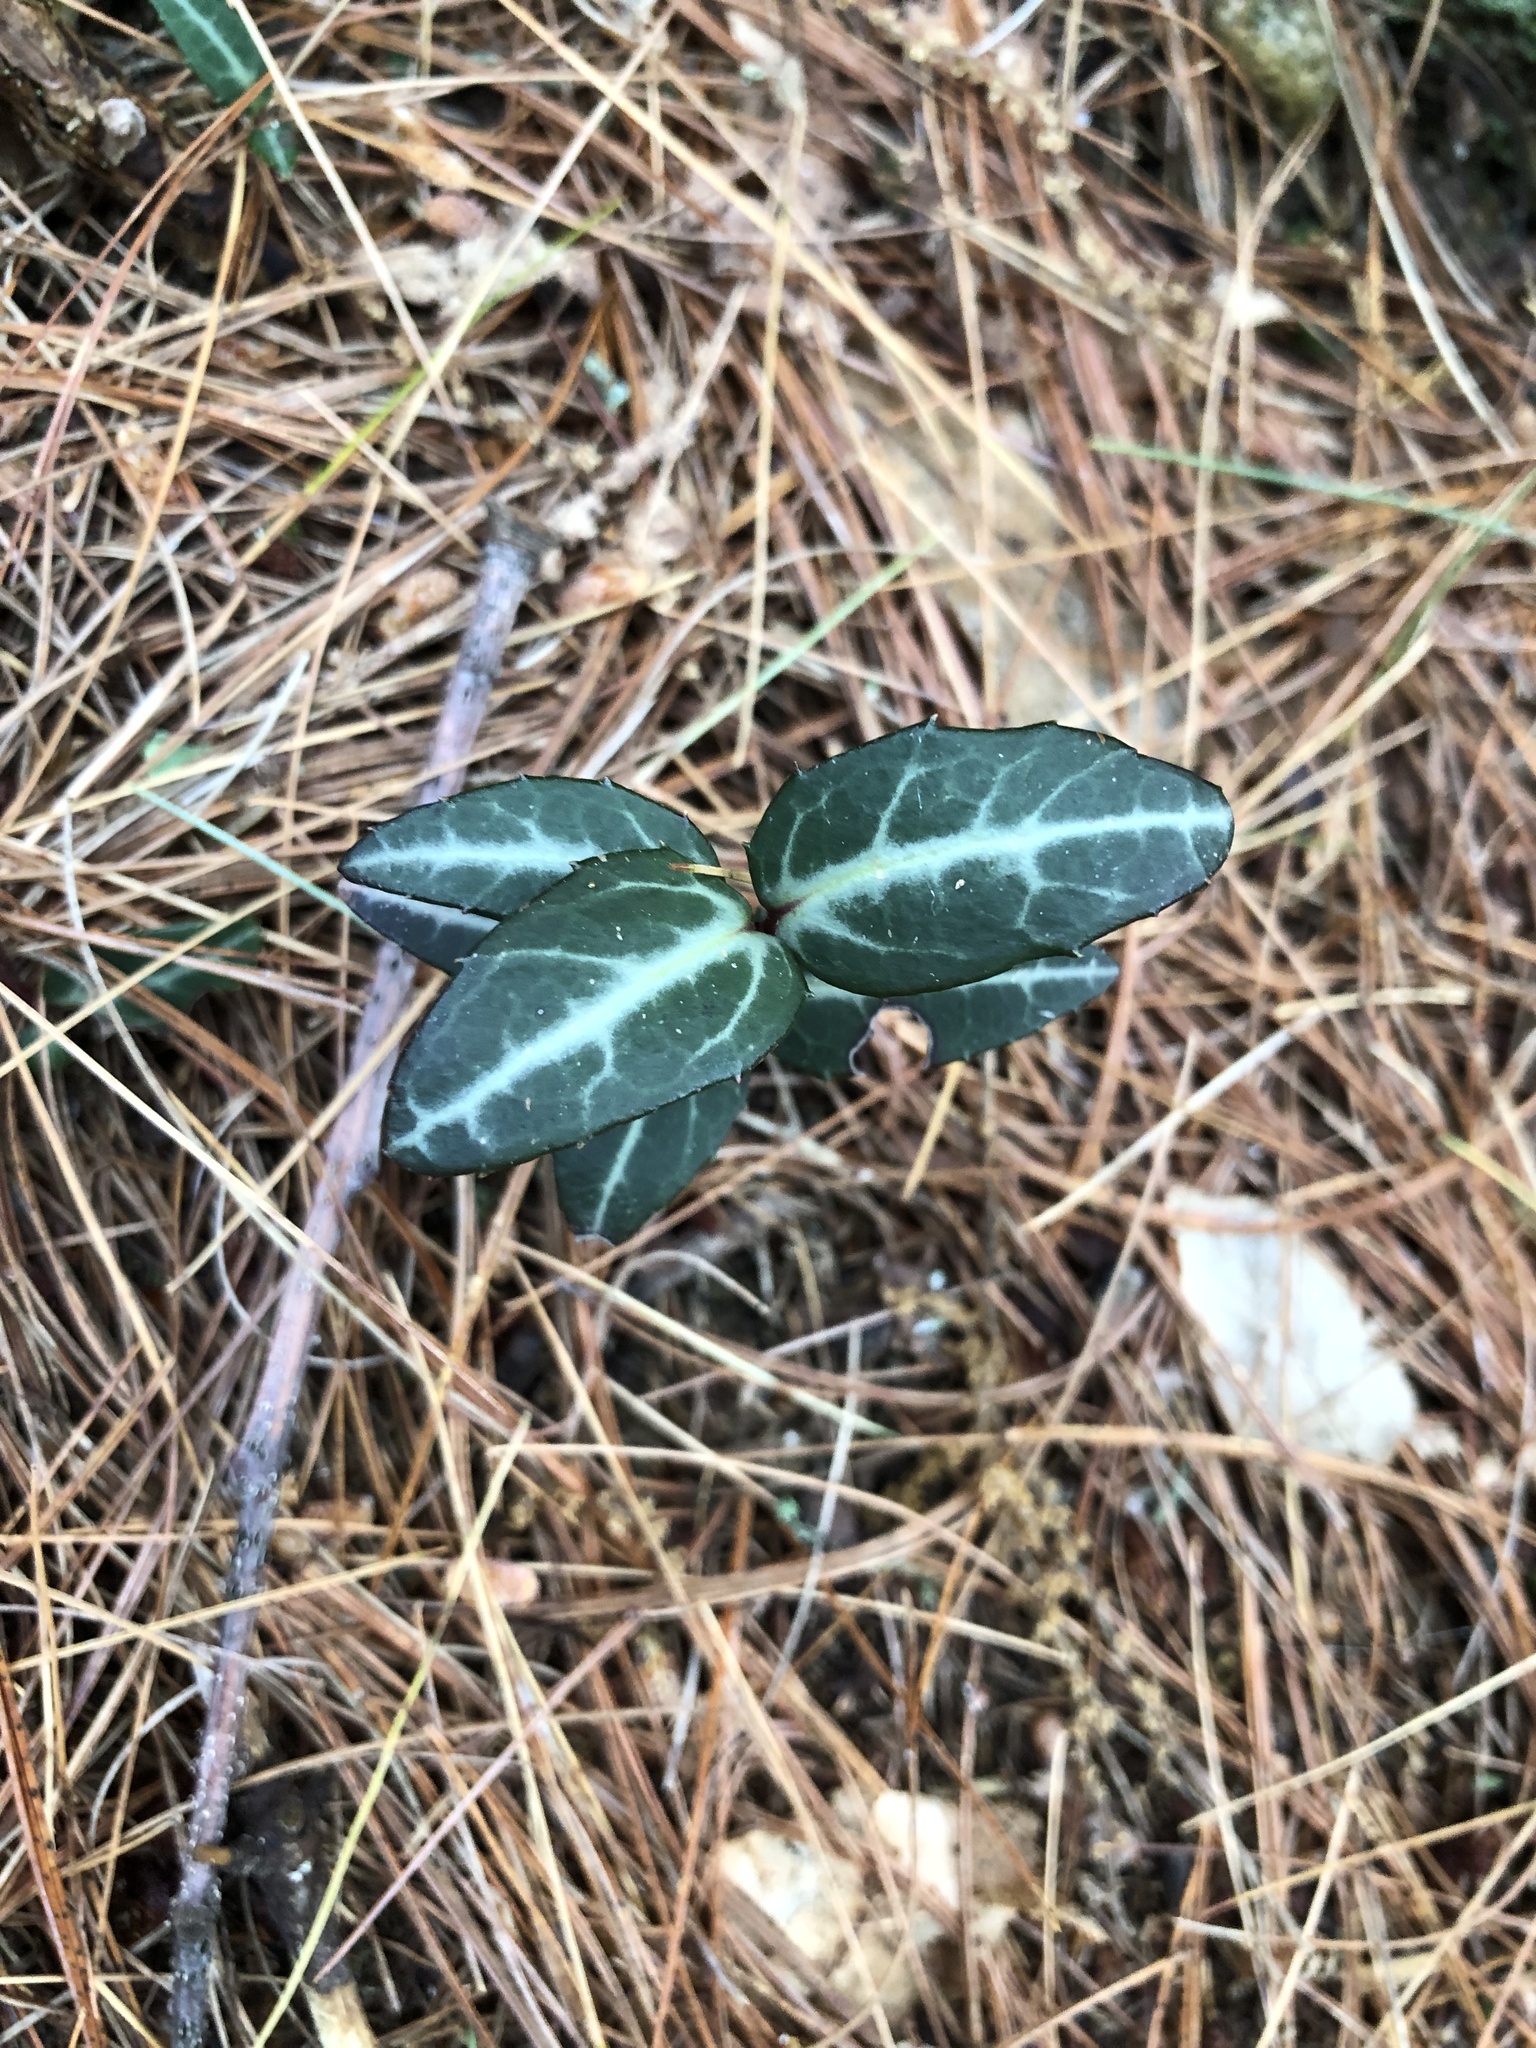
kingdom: Plantae
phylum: Tracheophyta
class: Magnoliopsida
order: Ericales
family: Ericaceae
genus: Chimaphila
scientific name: Chimaphila maculata
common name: Spotted pipsissewa
